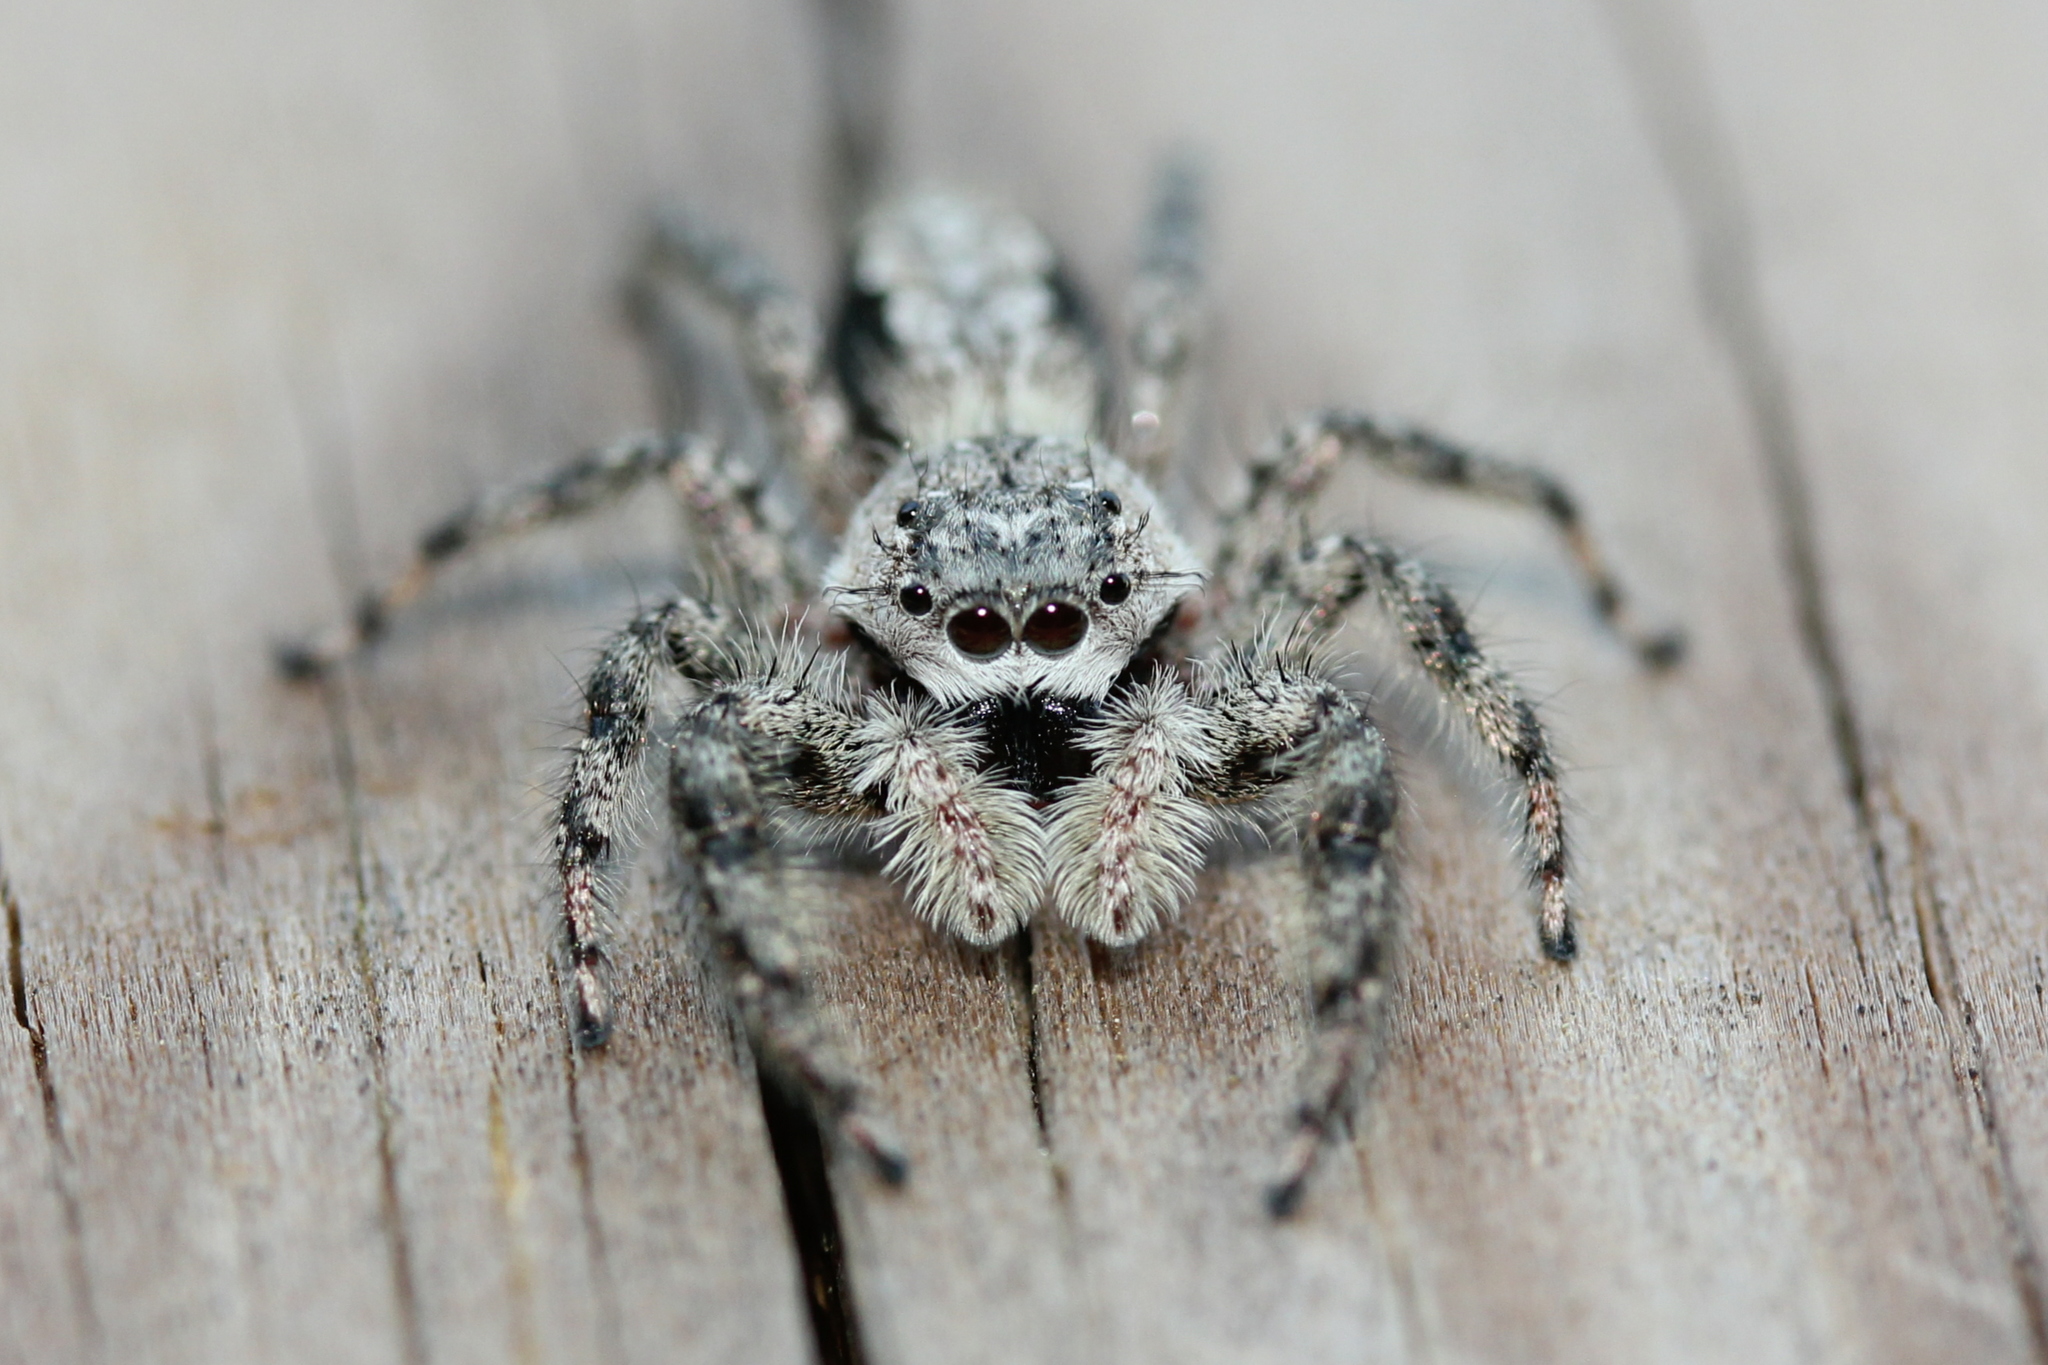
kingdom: Animalia
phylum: Arthropoda
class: Arachnida
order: Araneae
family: Salticidae
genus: Platycryptus
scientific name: Platycryptus undatus
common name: Tan jumping spider
